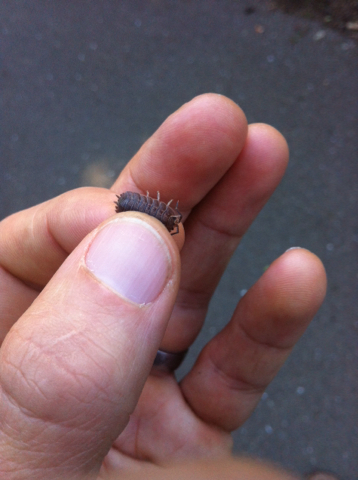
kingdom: Animalia
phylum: Arthropoda
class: Malacostraca
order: Isopoda
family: Porcellionidae
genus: Porcellio
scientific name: Porcellio dilatatus
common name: Isopod
